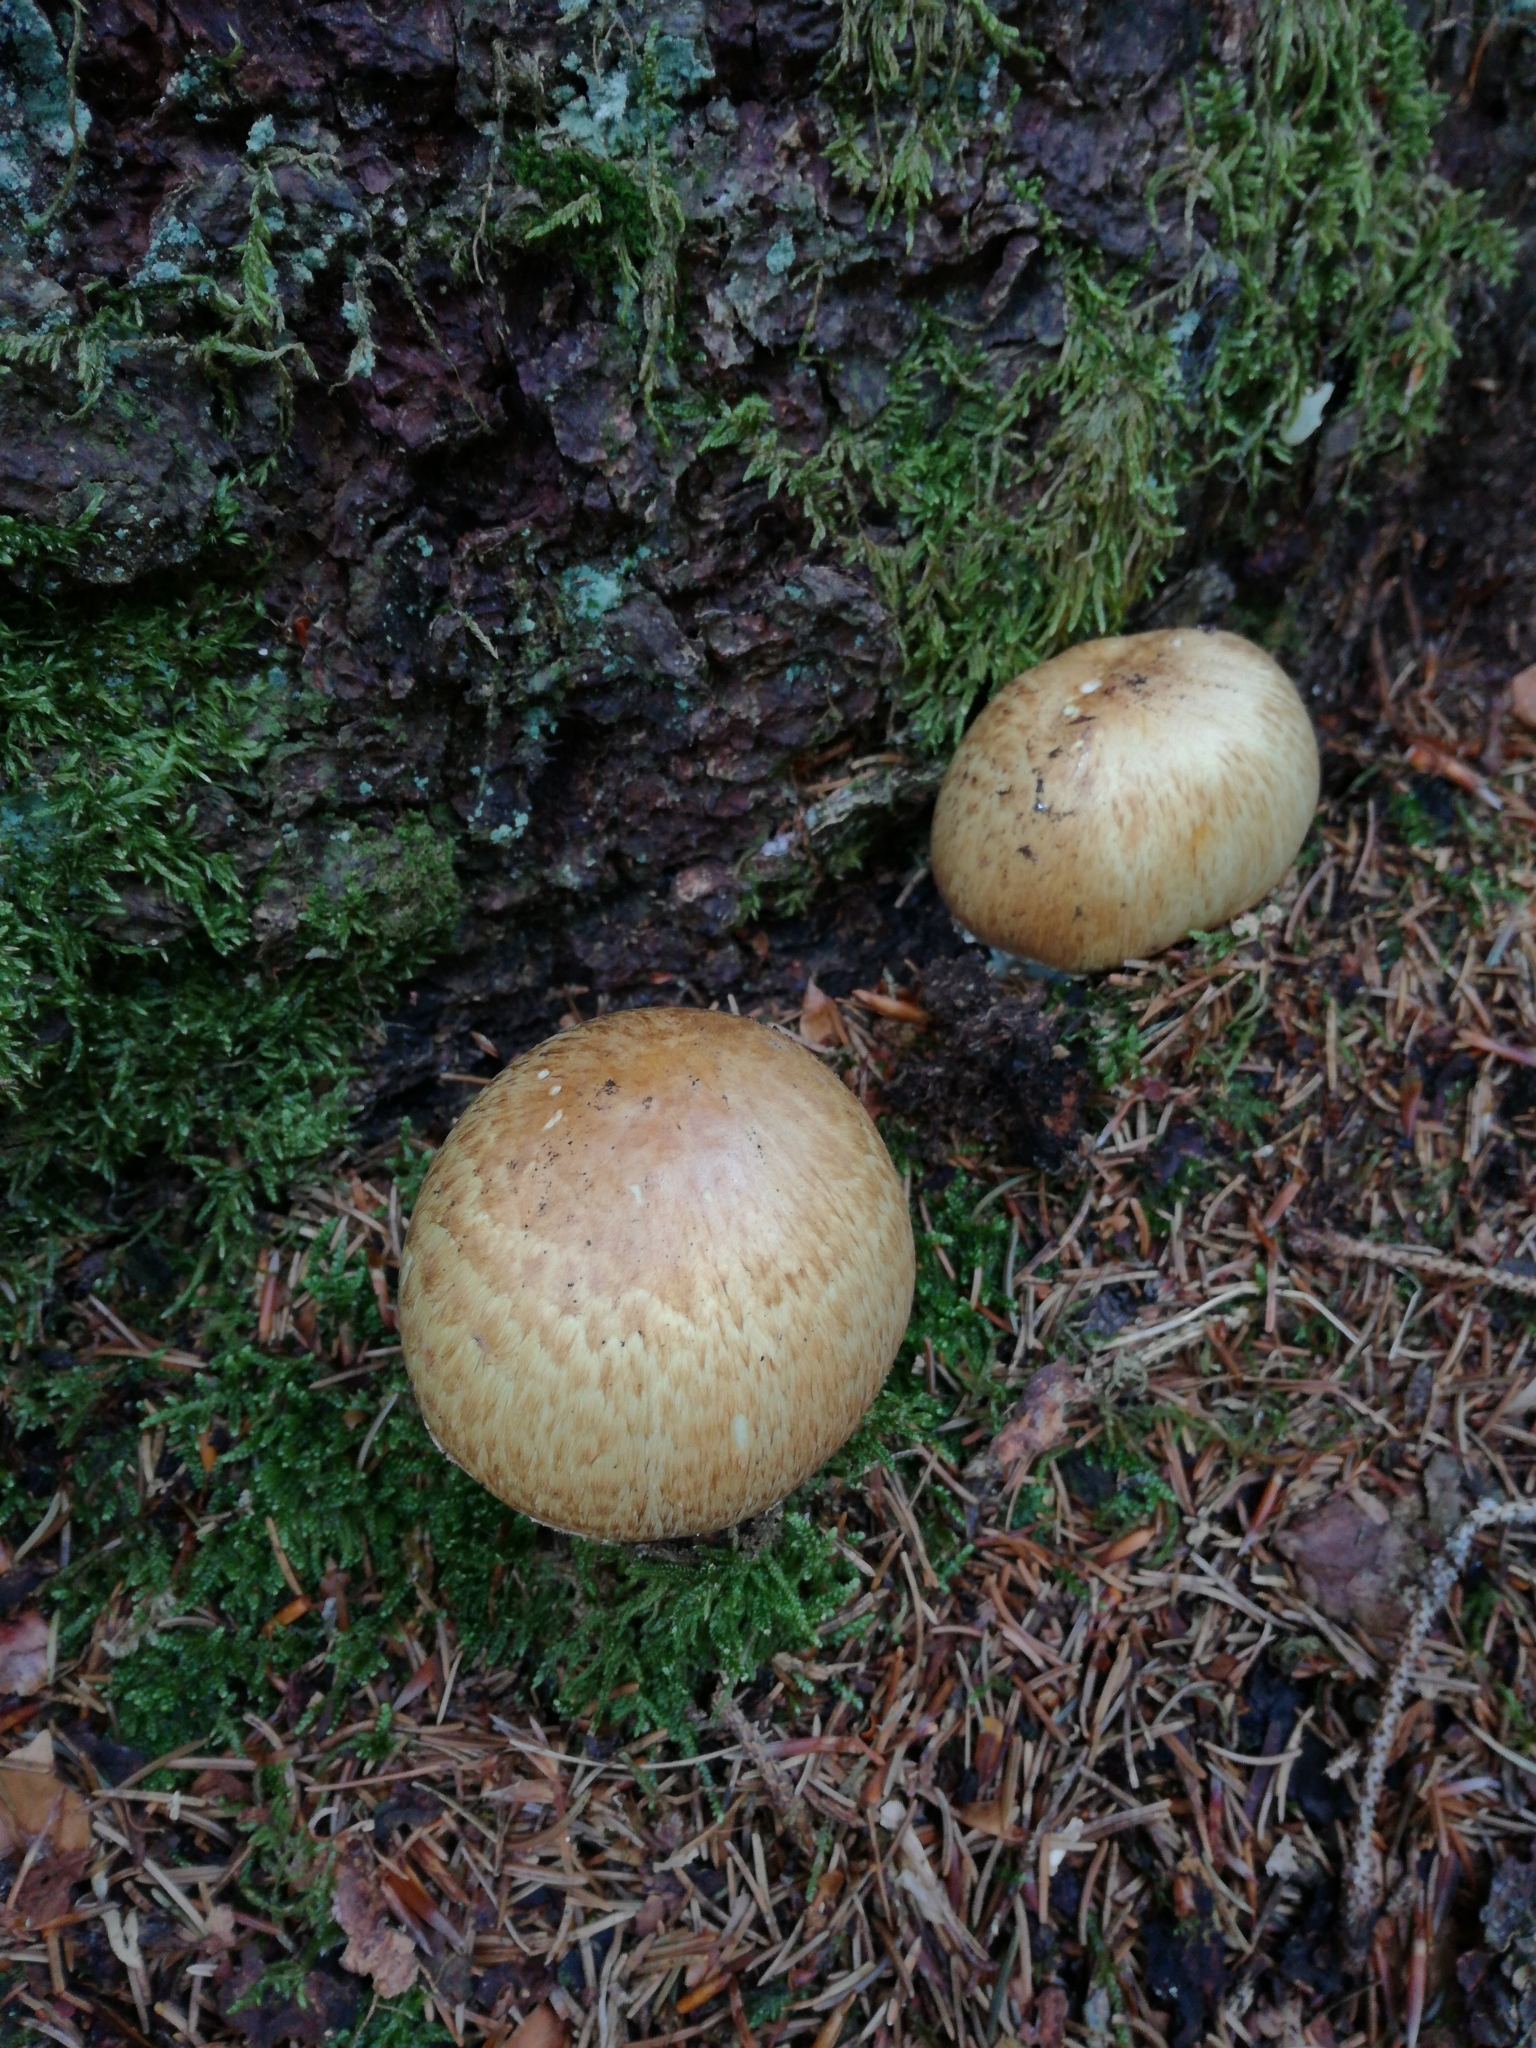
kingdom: Fungi
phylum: Basidiomycota
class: Agaricomycetes
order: Agaricales
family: Agaricaceae
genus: Agaricus
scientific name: Agaricus augustus
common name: Prince
